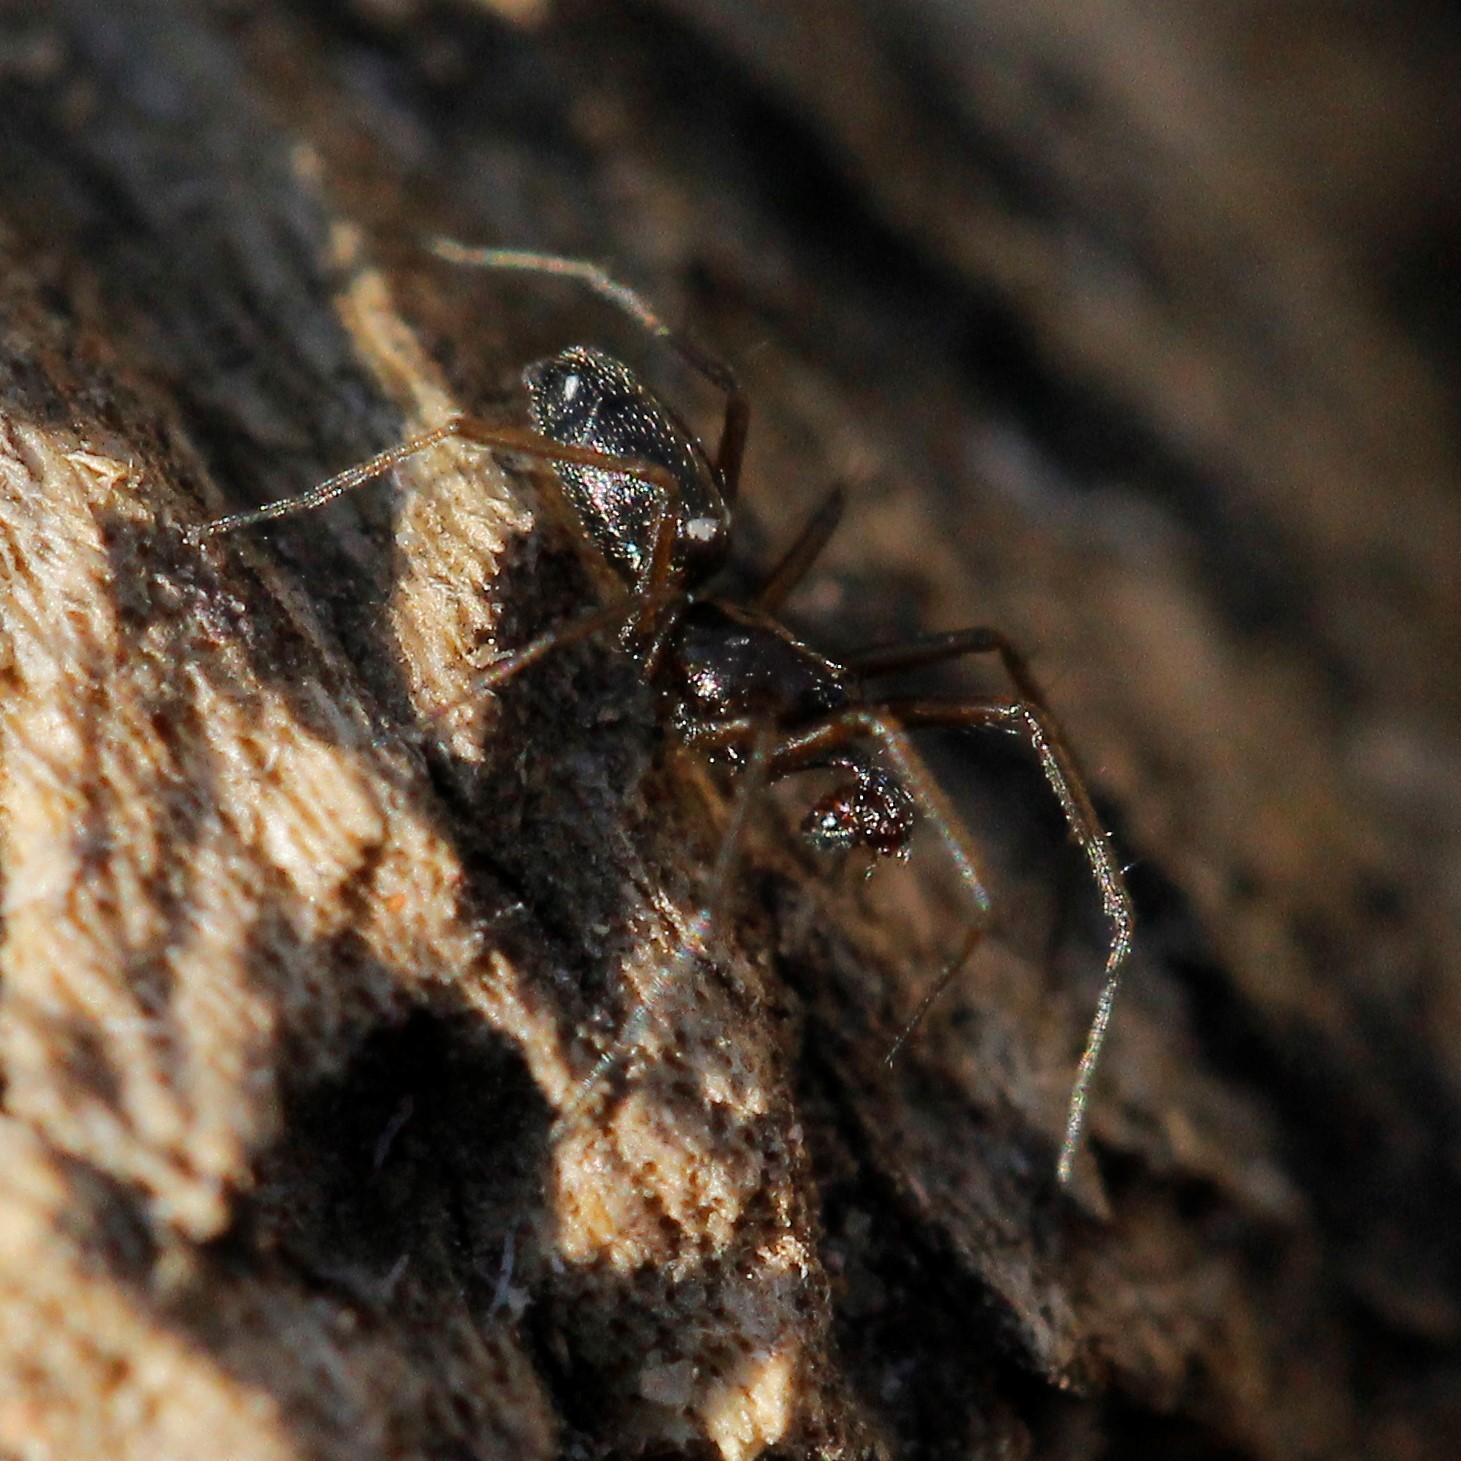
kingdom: Animalia
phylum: Arthropoda
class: Arachnida
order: Araneae
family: Linyphiidae
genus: Microlinyphia
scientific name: Microlinyphia pusilla
